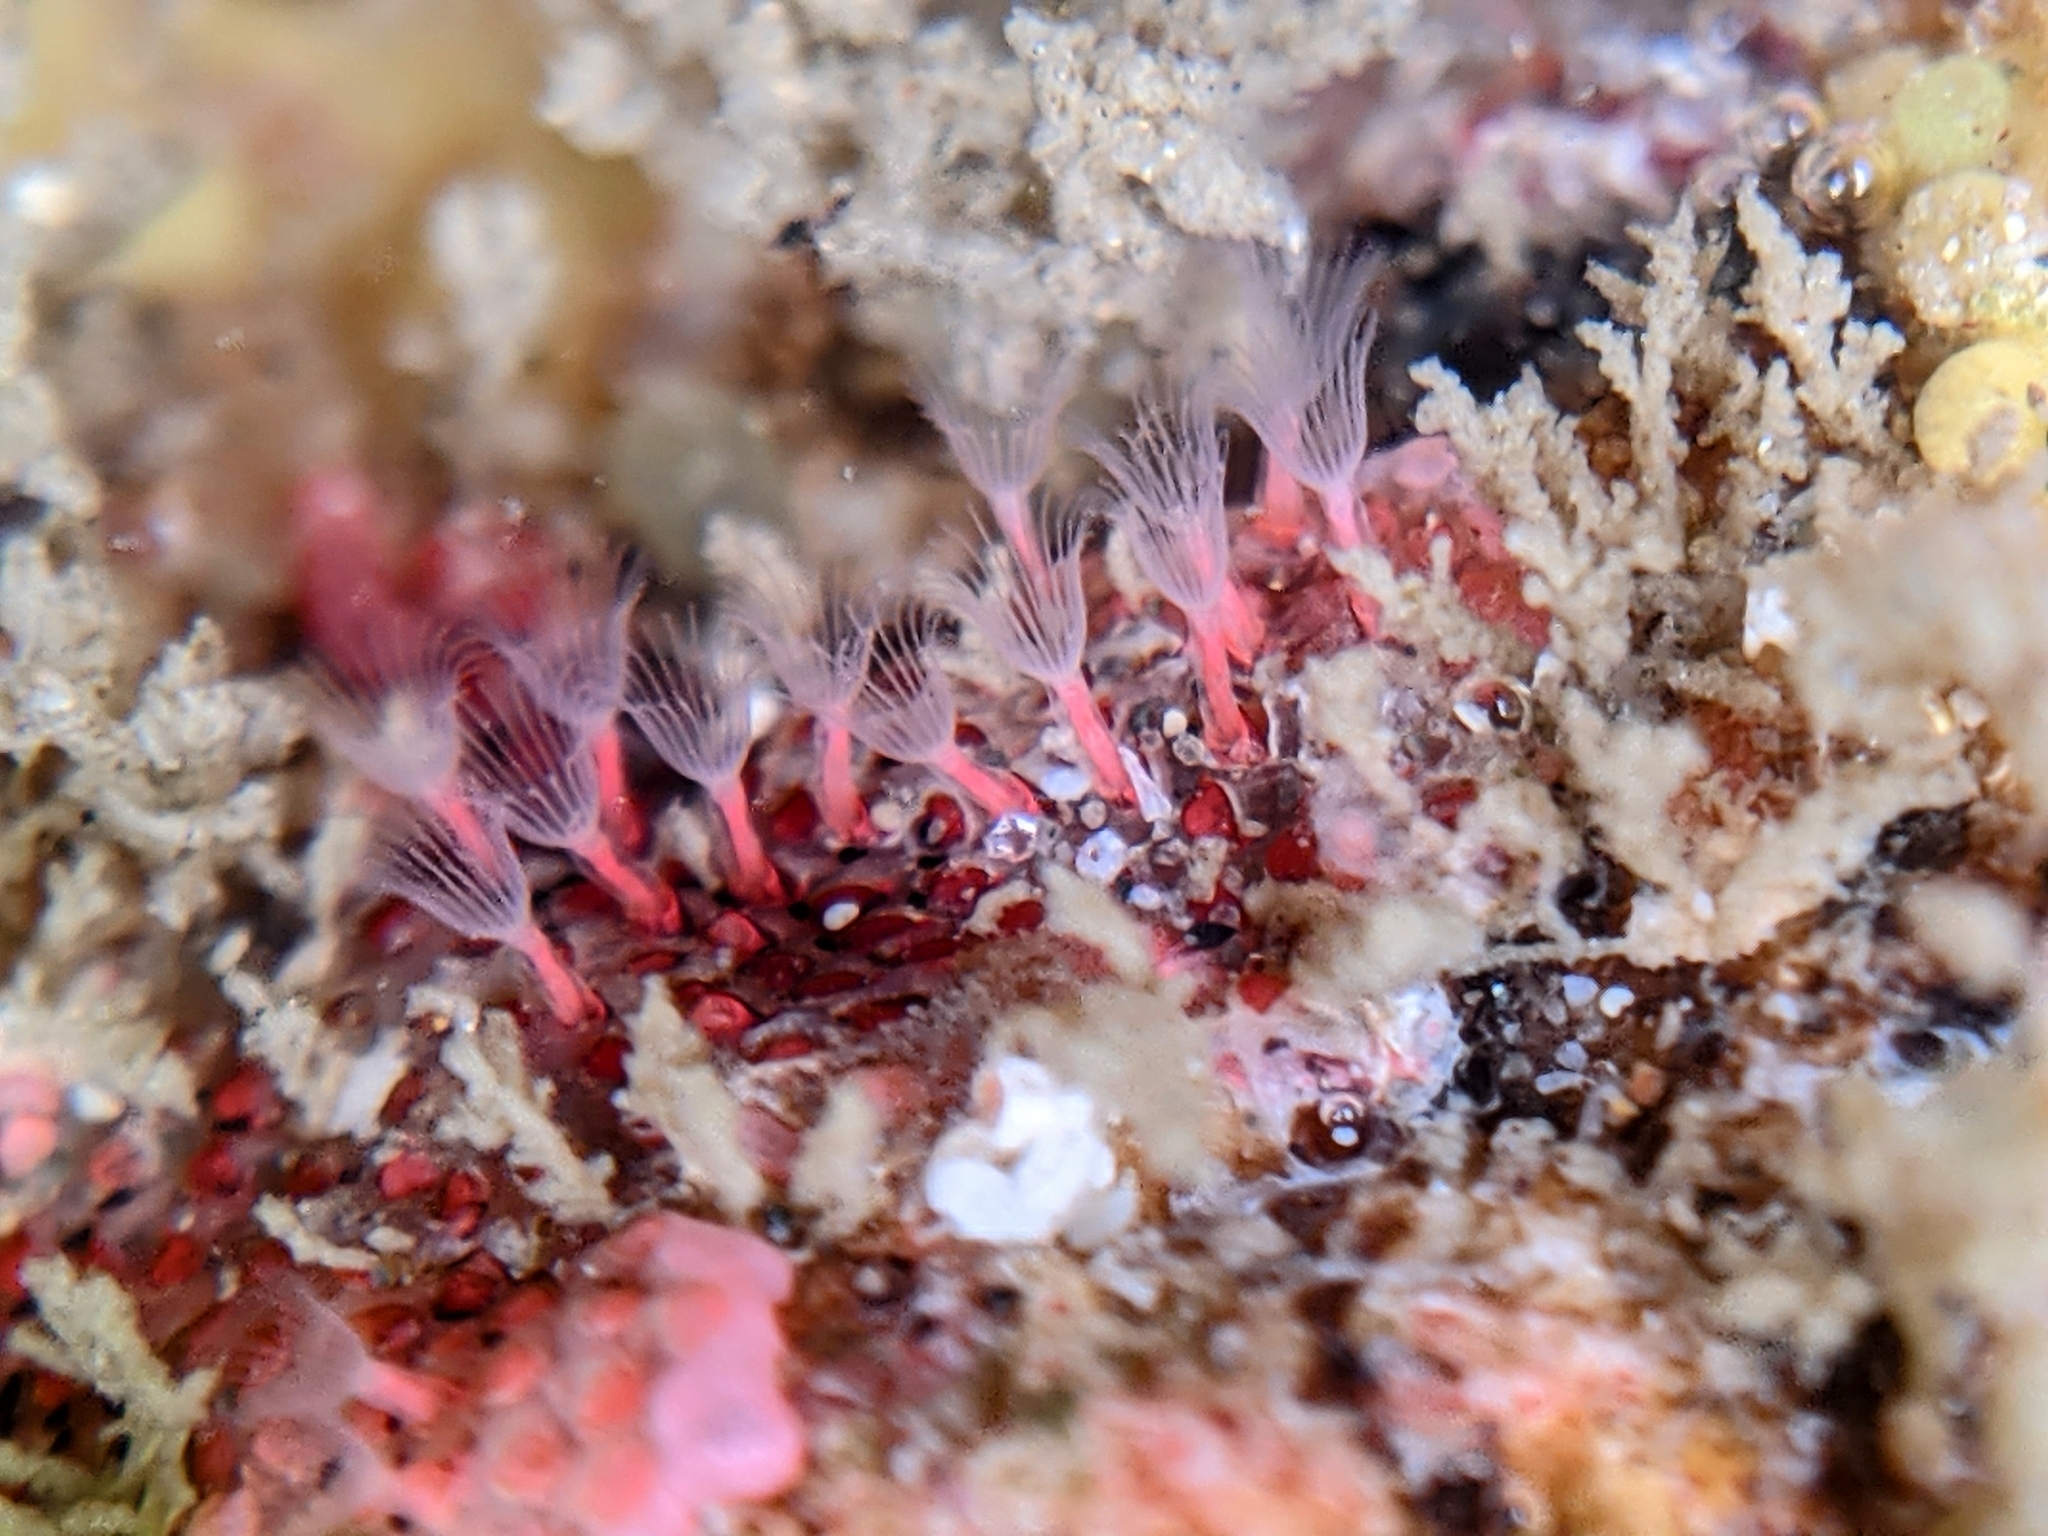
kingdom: Animalia
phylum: Bryozoa
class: Gymnolaemata
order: Cheilostomatida
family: Eurystomellidae
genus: Integripelta
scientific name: Integripelta bilabiata
